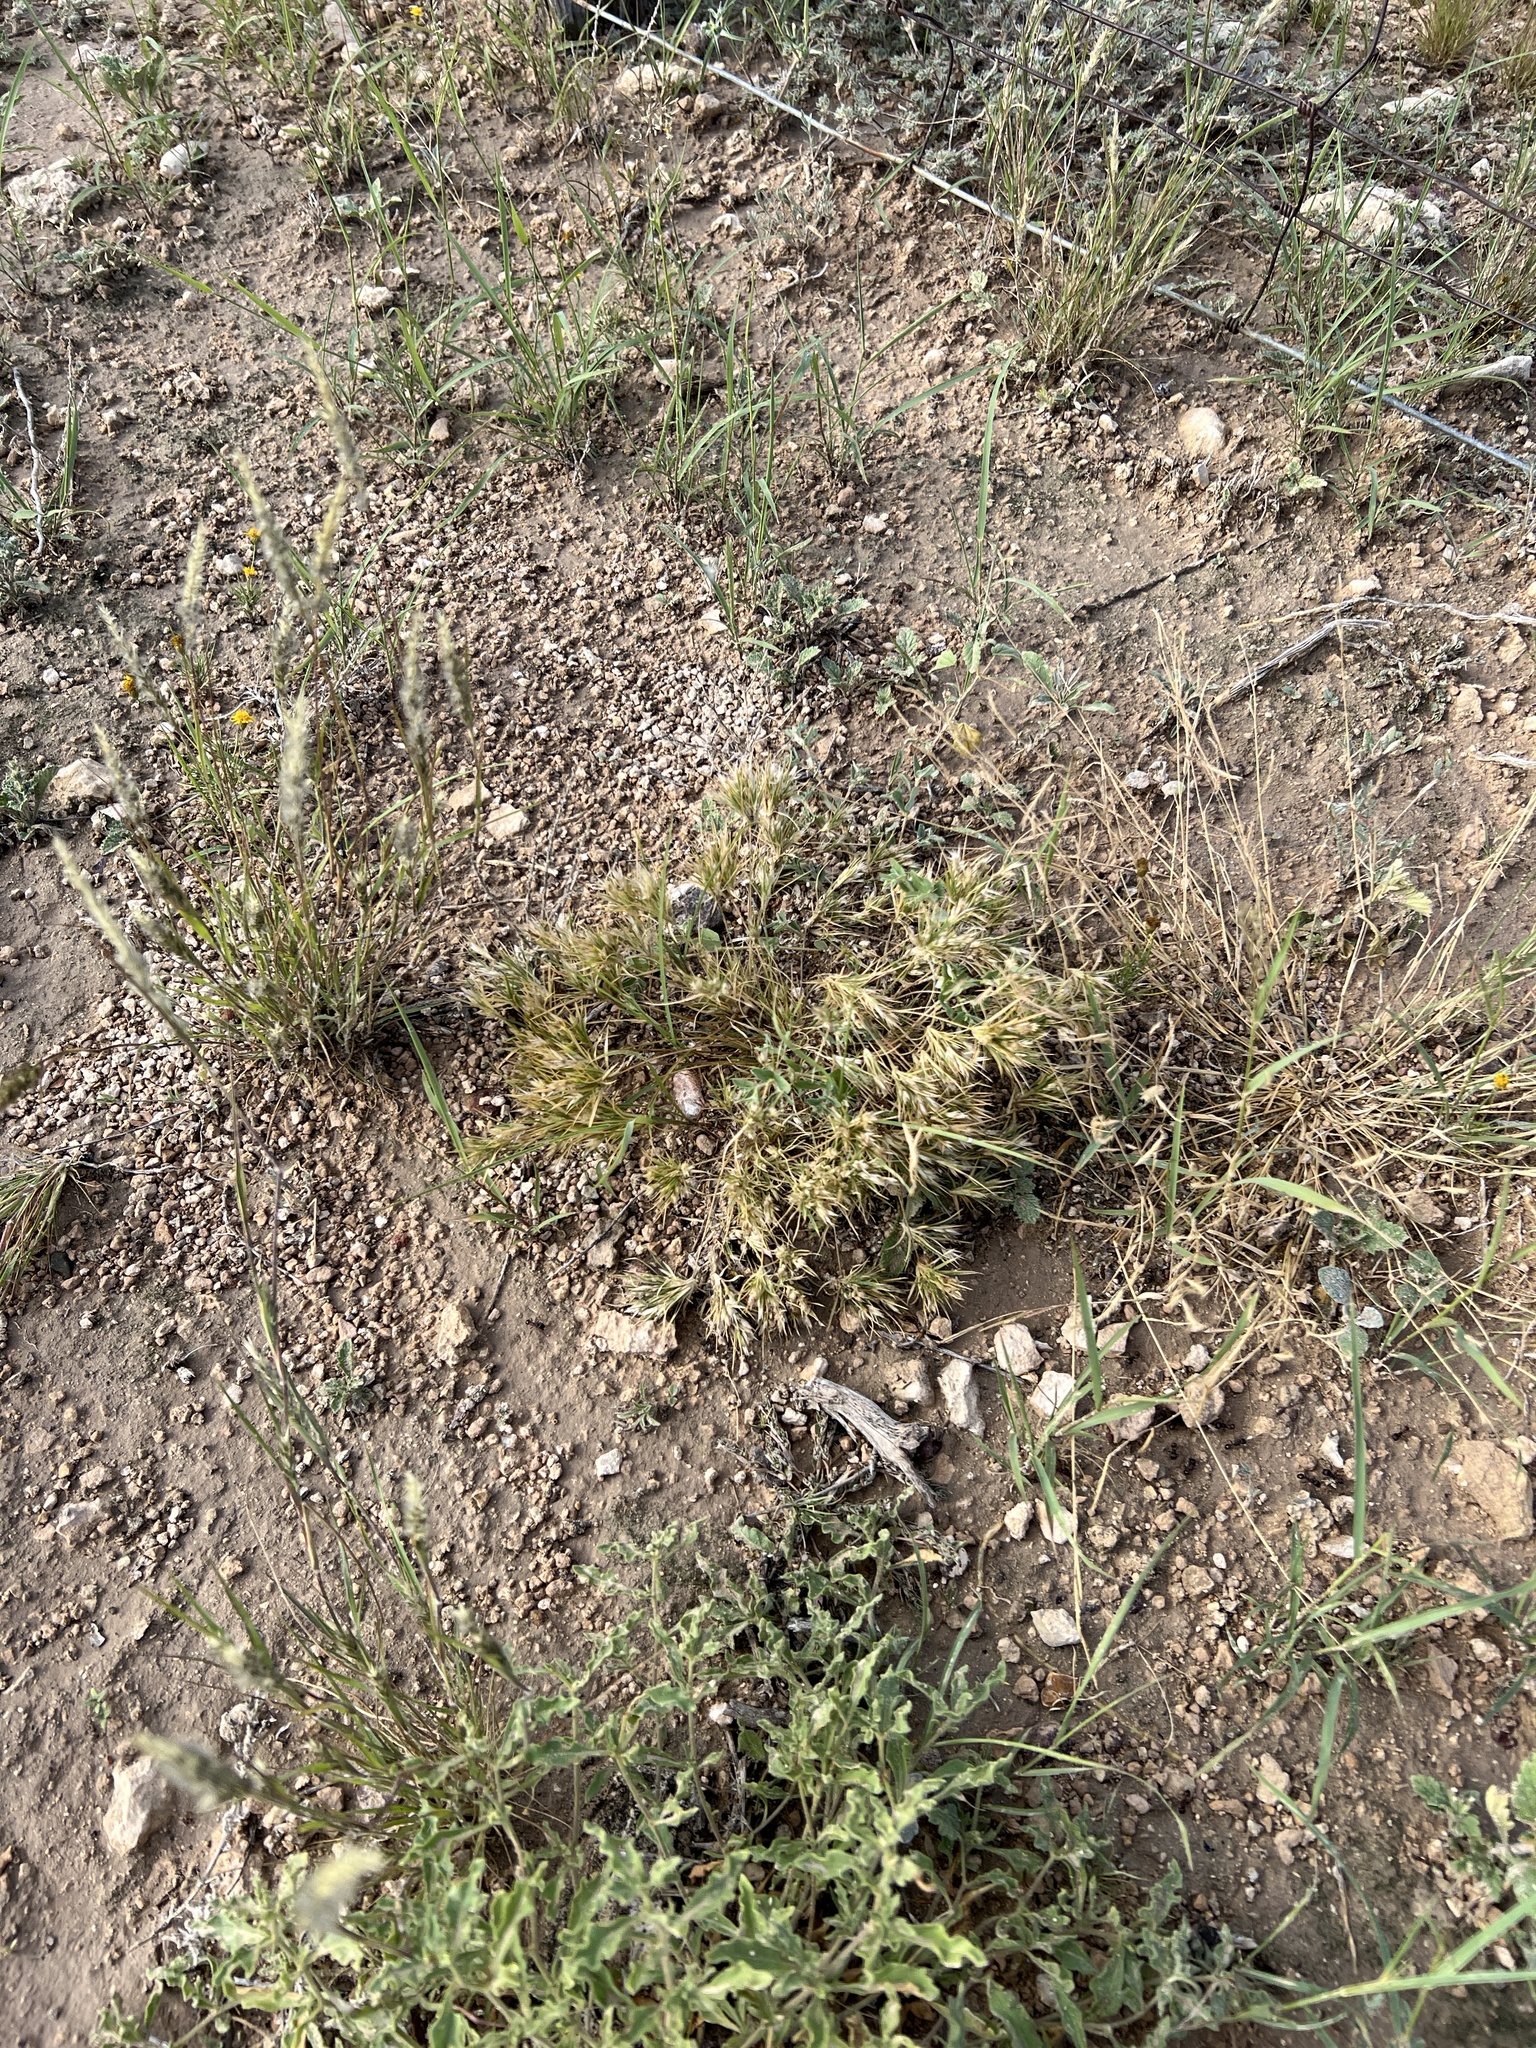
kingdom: Plantae
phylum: Tracheophyta
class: Liliopsida
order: Poales
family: Poaceae
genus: Dasyochloa
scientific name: Dasyochloa pulchella
